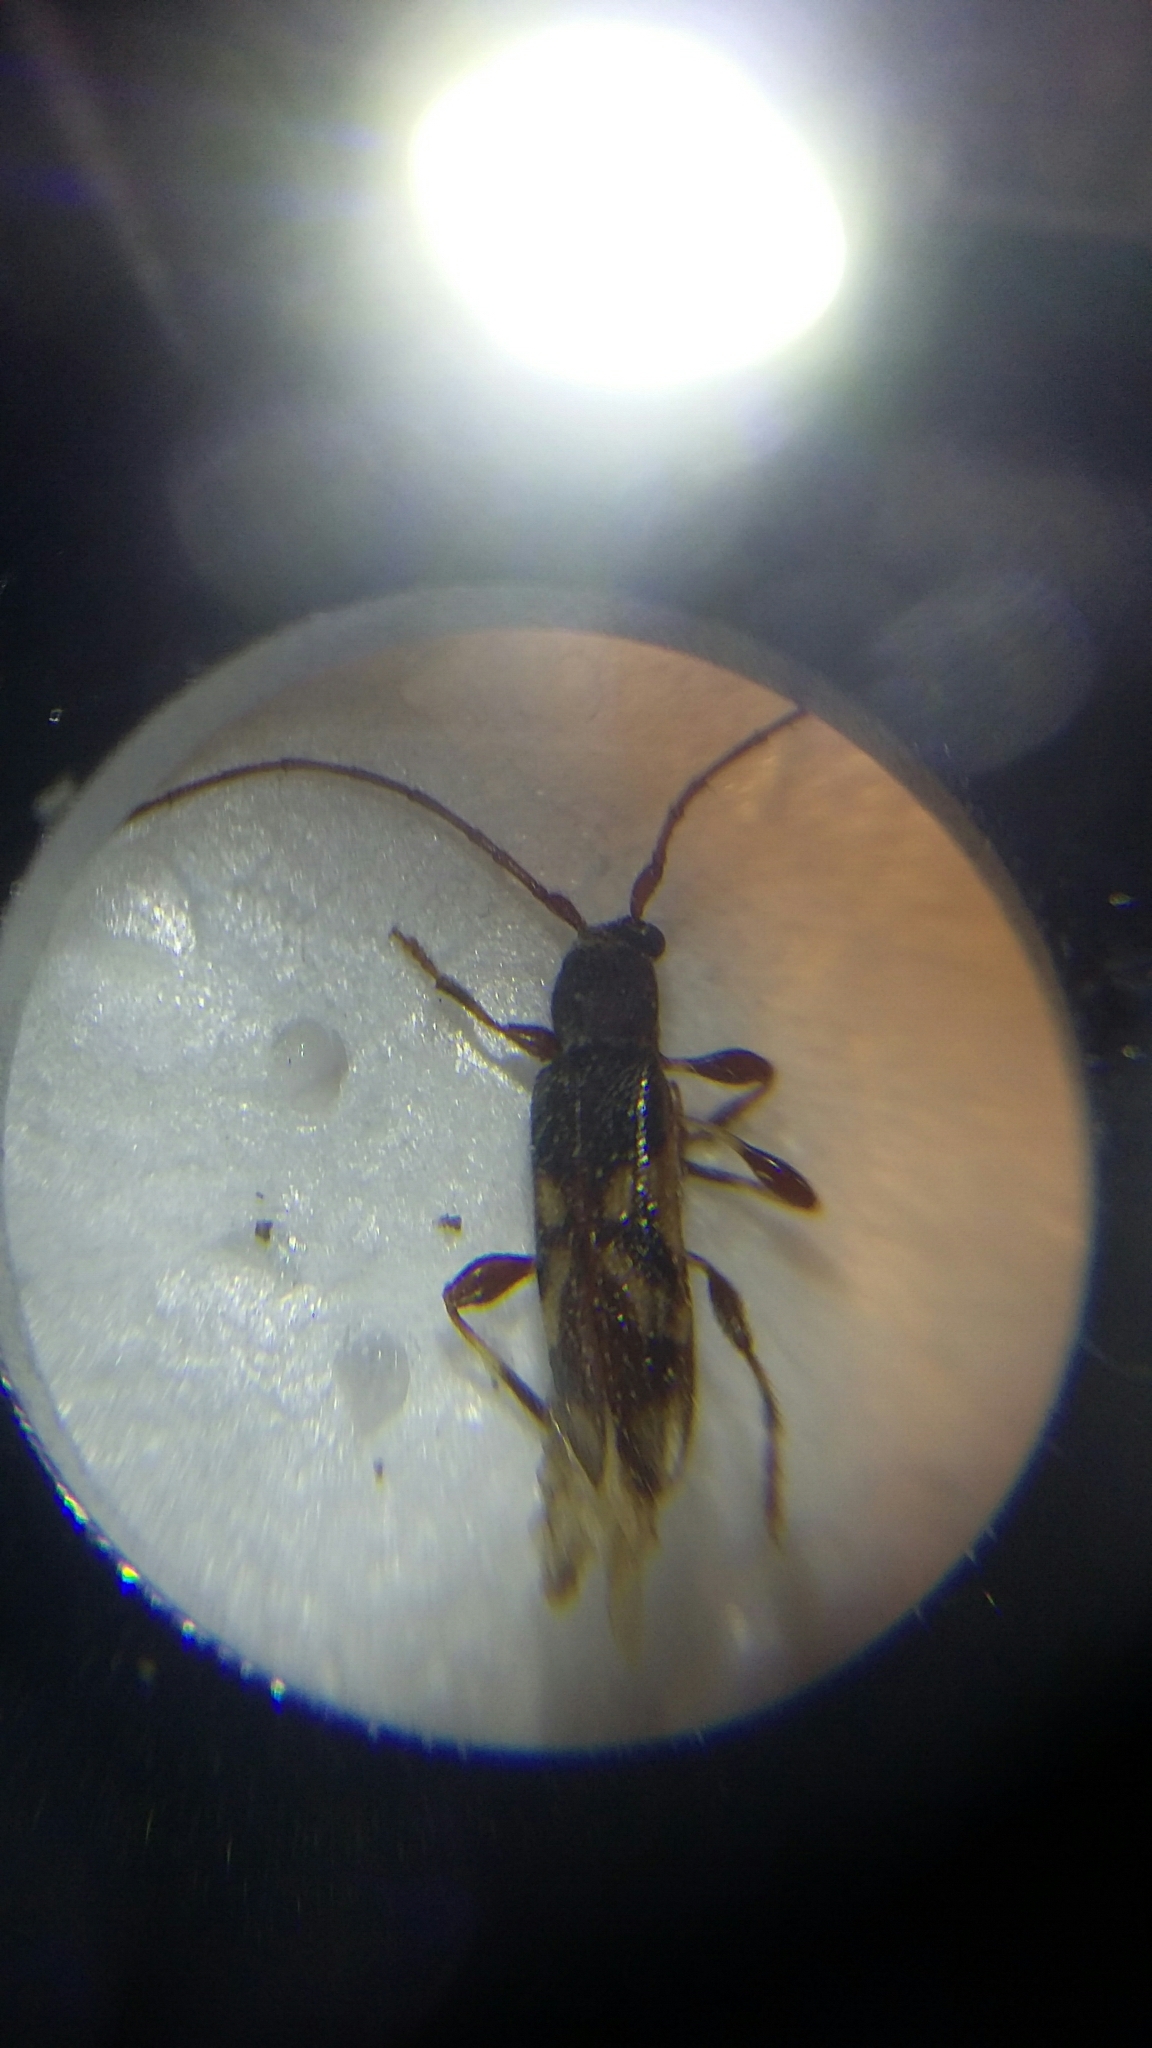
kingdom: Animalia
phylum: Arthropoda
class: Insecta
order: Coleoptera
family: Cerambycidae
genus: Bethelium
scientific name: Bethelium signiferum
